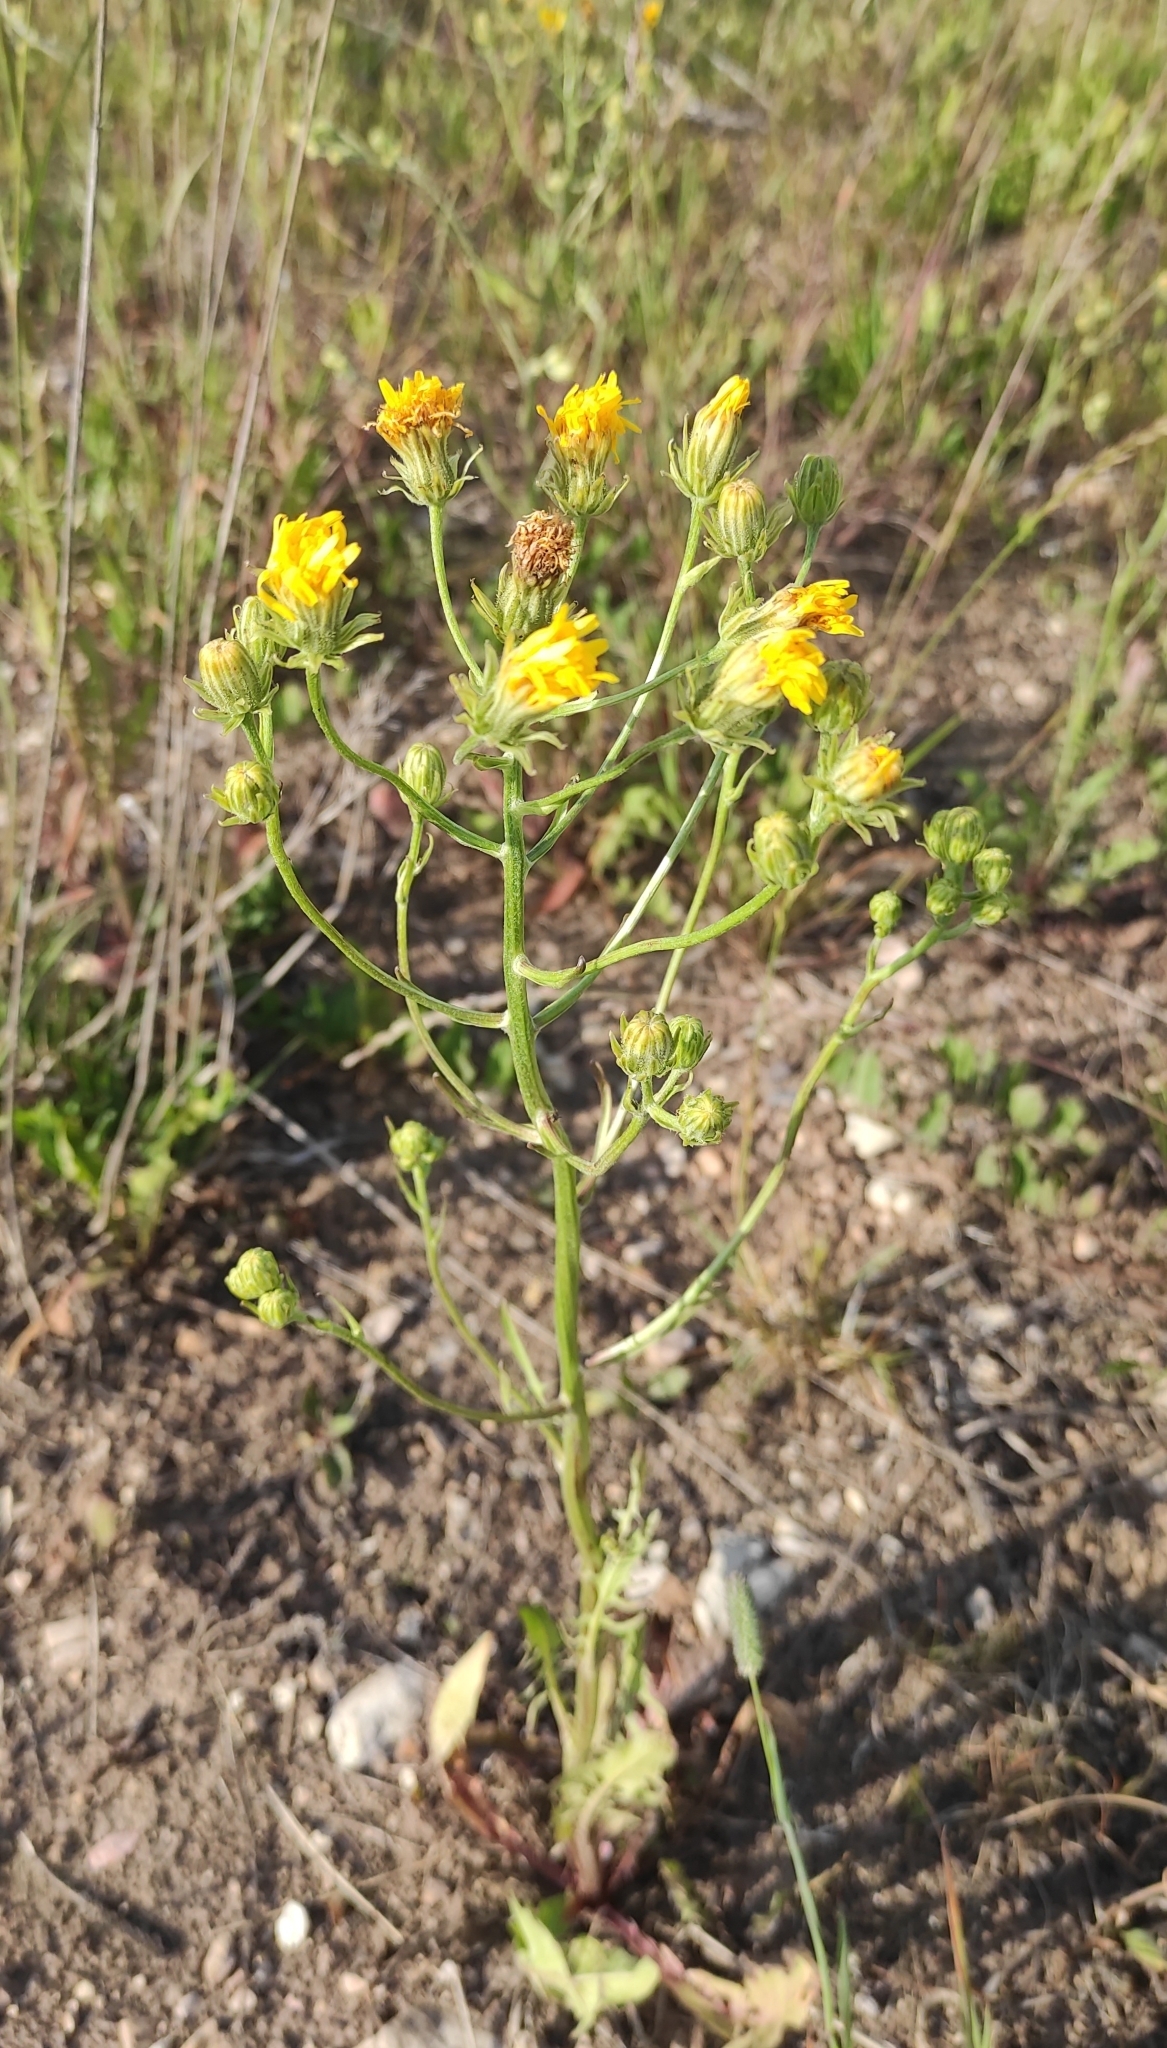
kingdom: Plantae
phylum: Tracheophyta
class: Magnoliopsida
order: Asterales
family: Asteraceae
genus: Crepis
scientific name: Crepis biennis
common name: Rough hawk's-beard
